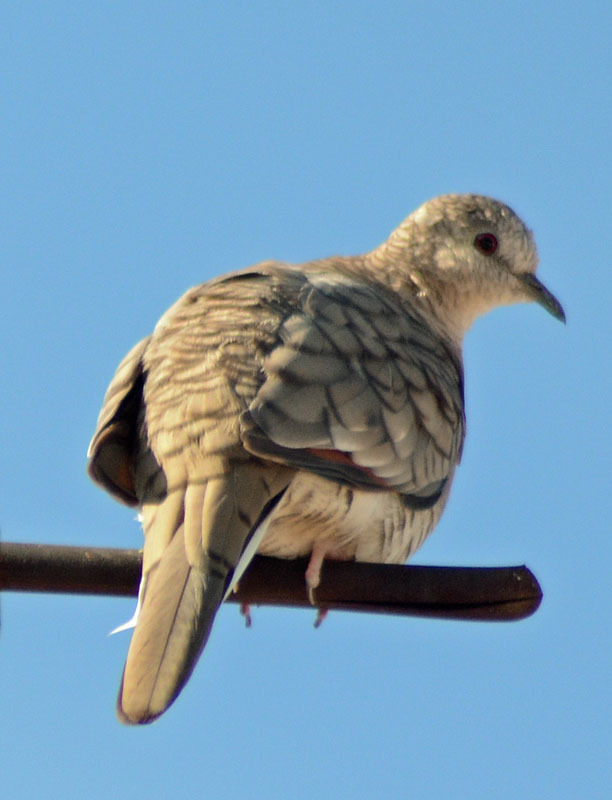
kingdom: Animalia
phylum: Chordata
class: Aves
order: Columbiformes
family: Columbidae
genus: Columbina
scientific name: Columbina inca
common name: Inca dove
